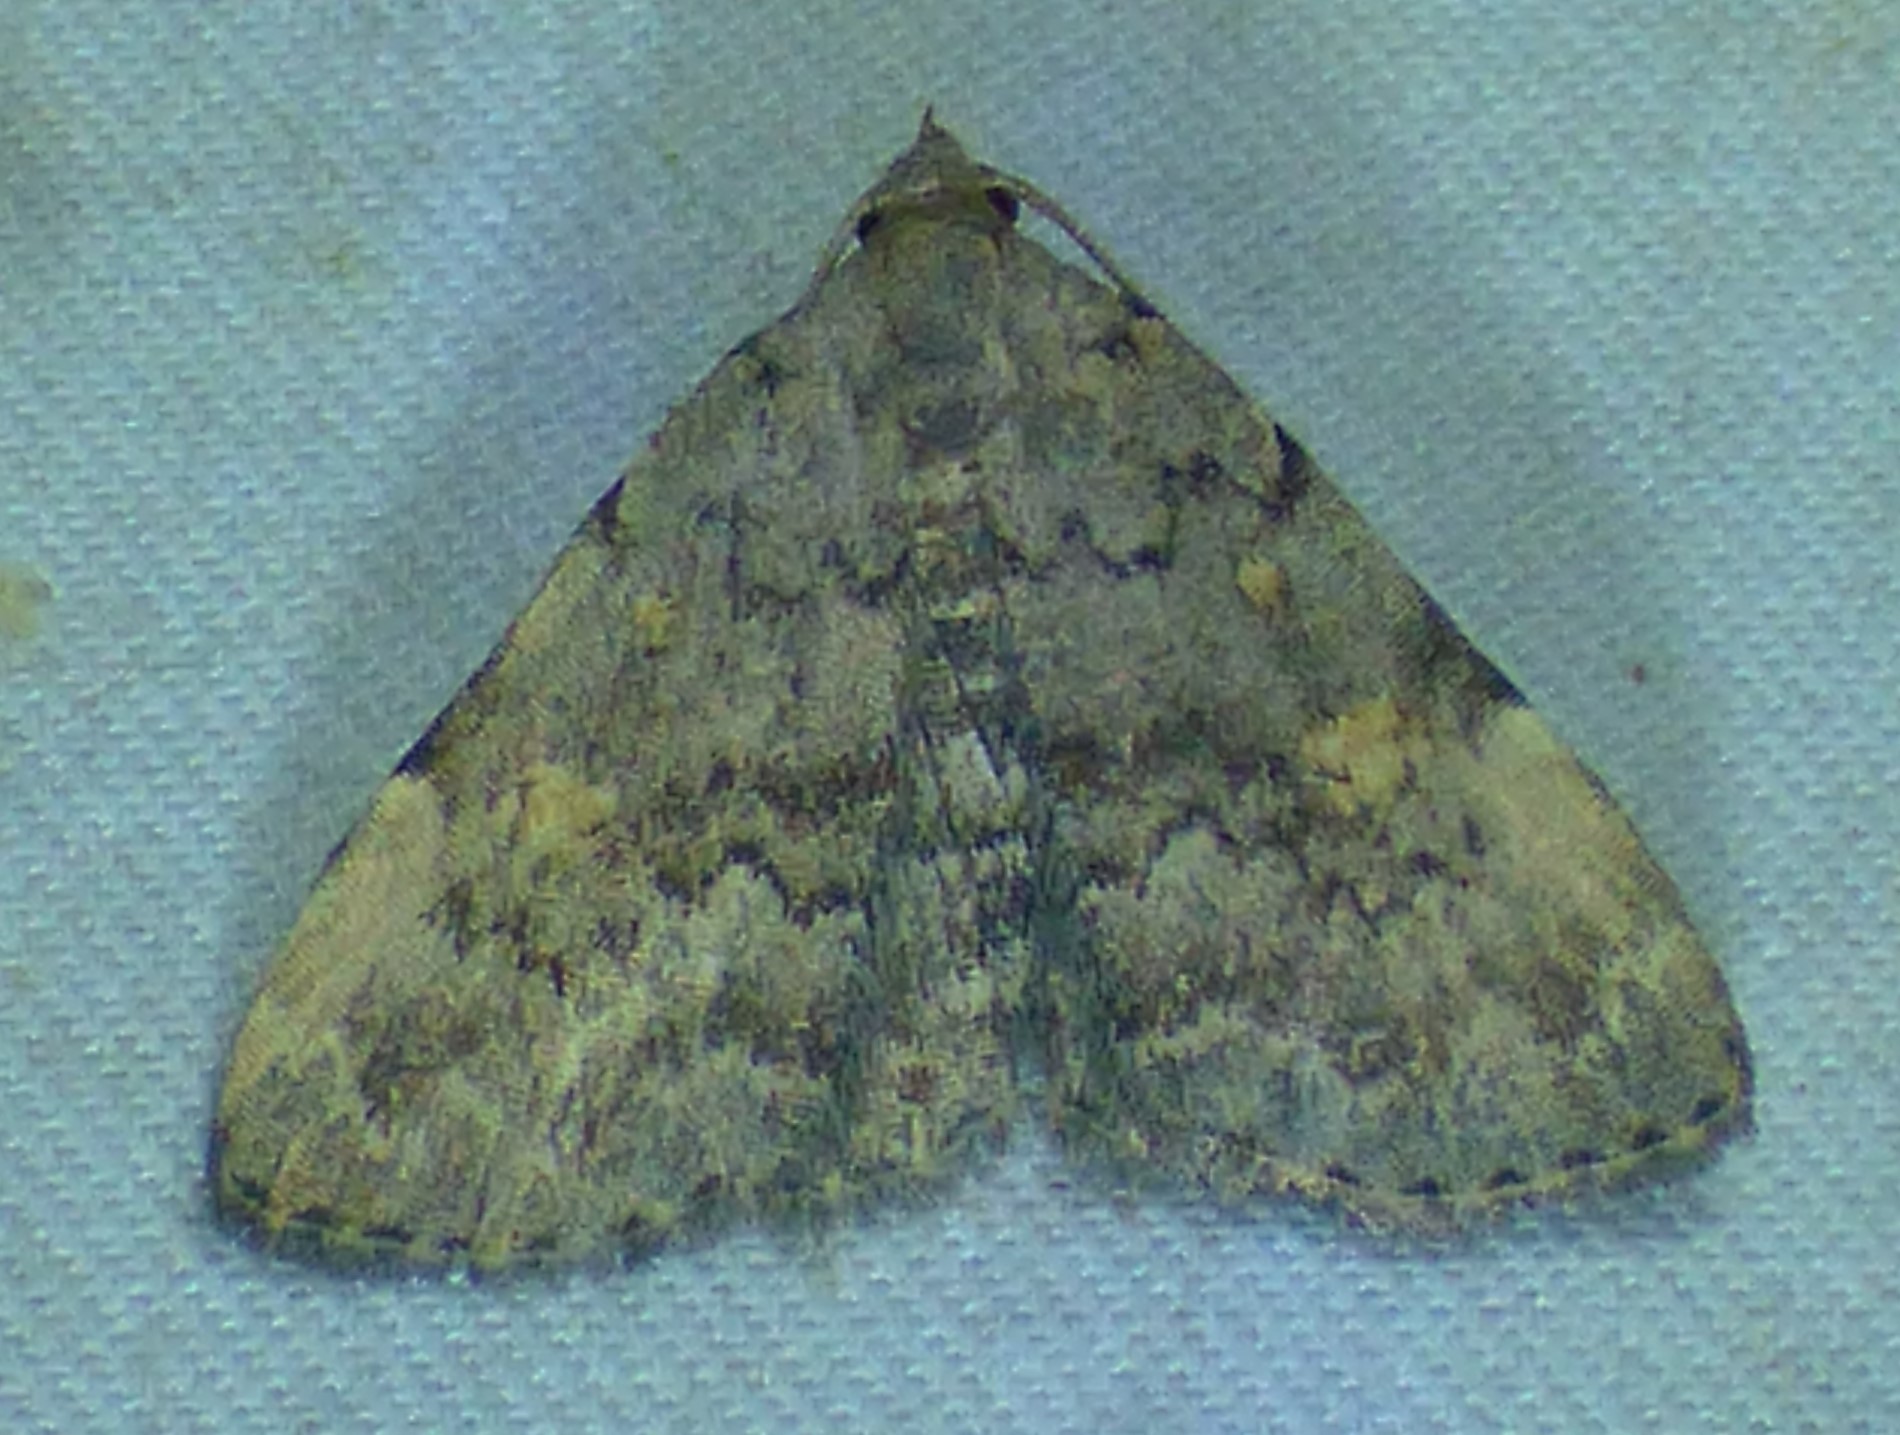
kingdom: Animalia
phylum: Arthropoda
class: Insecta
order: Lepidoptera
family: Erebidae
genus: Idia
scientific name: Idia aemula
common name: Common idia moth
